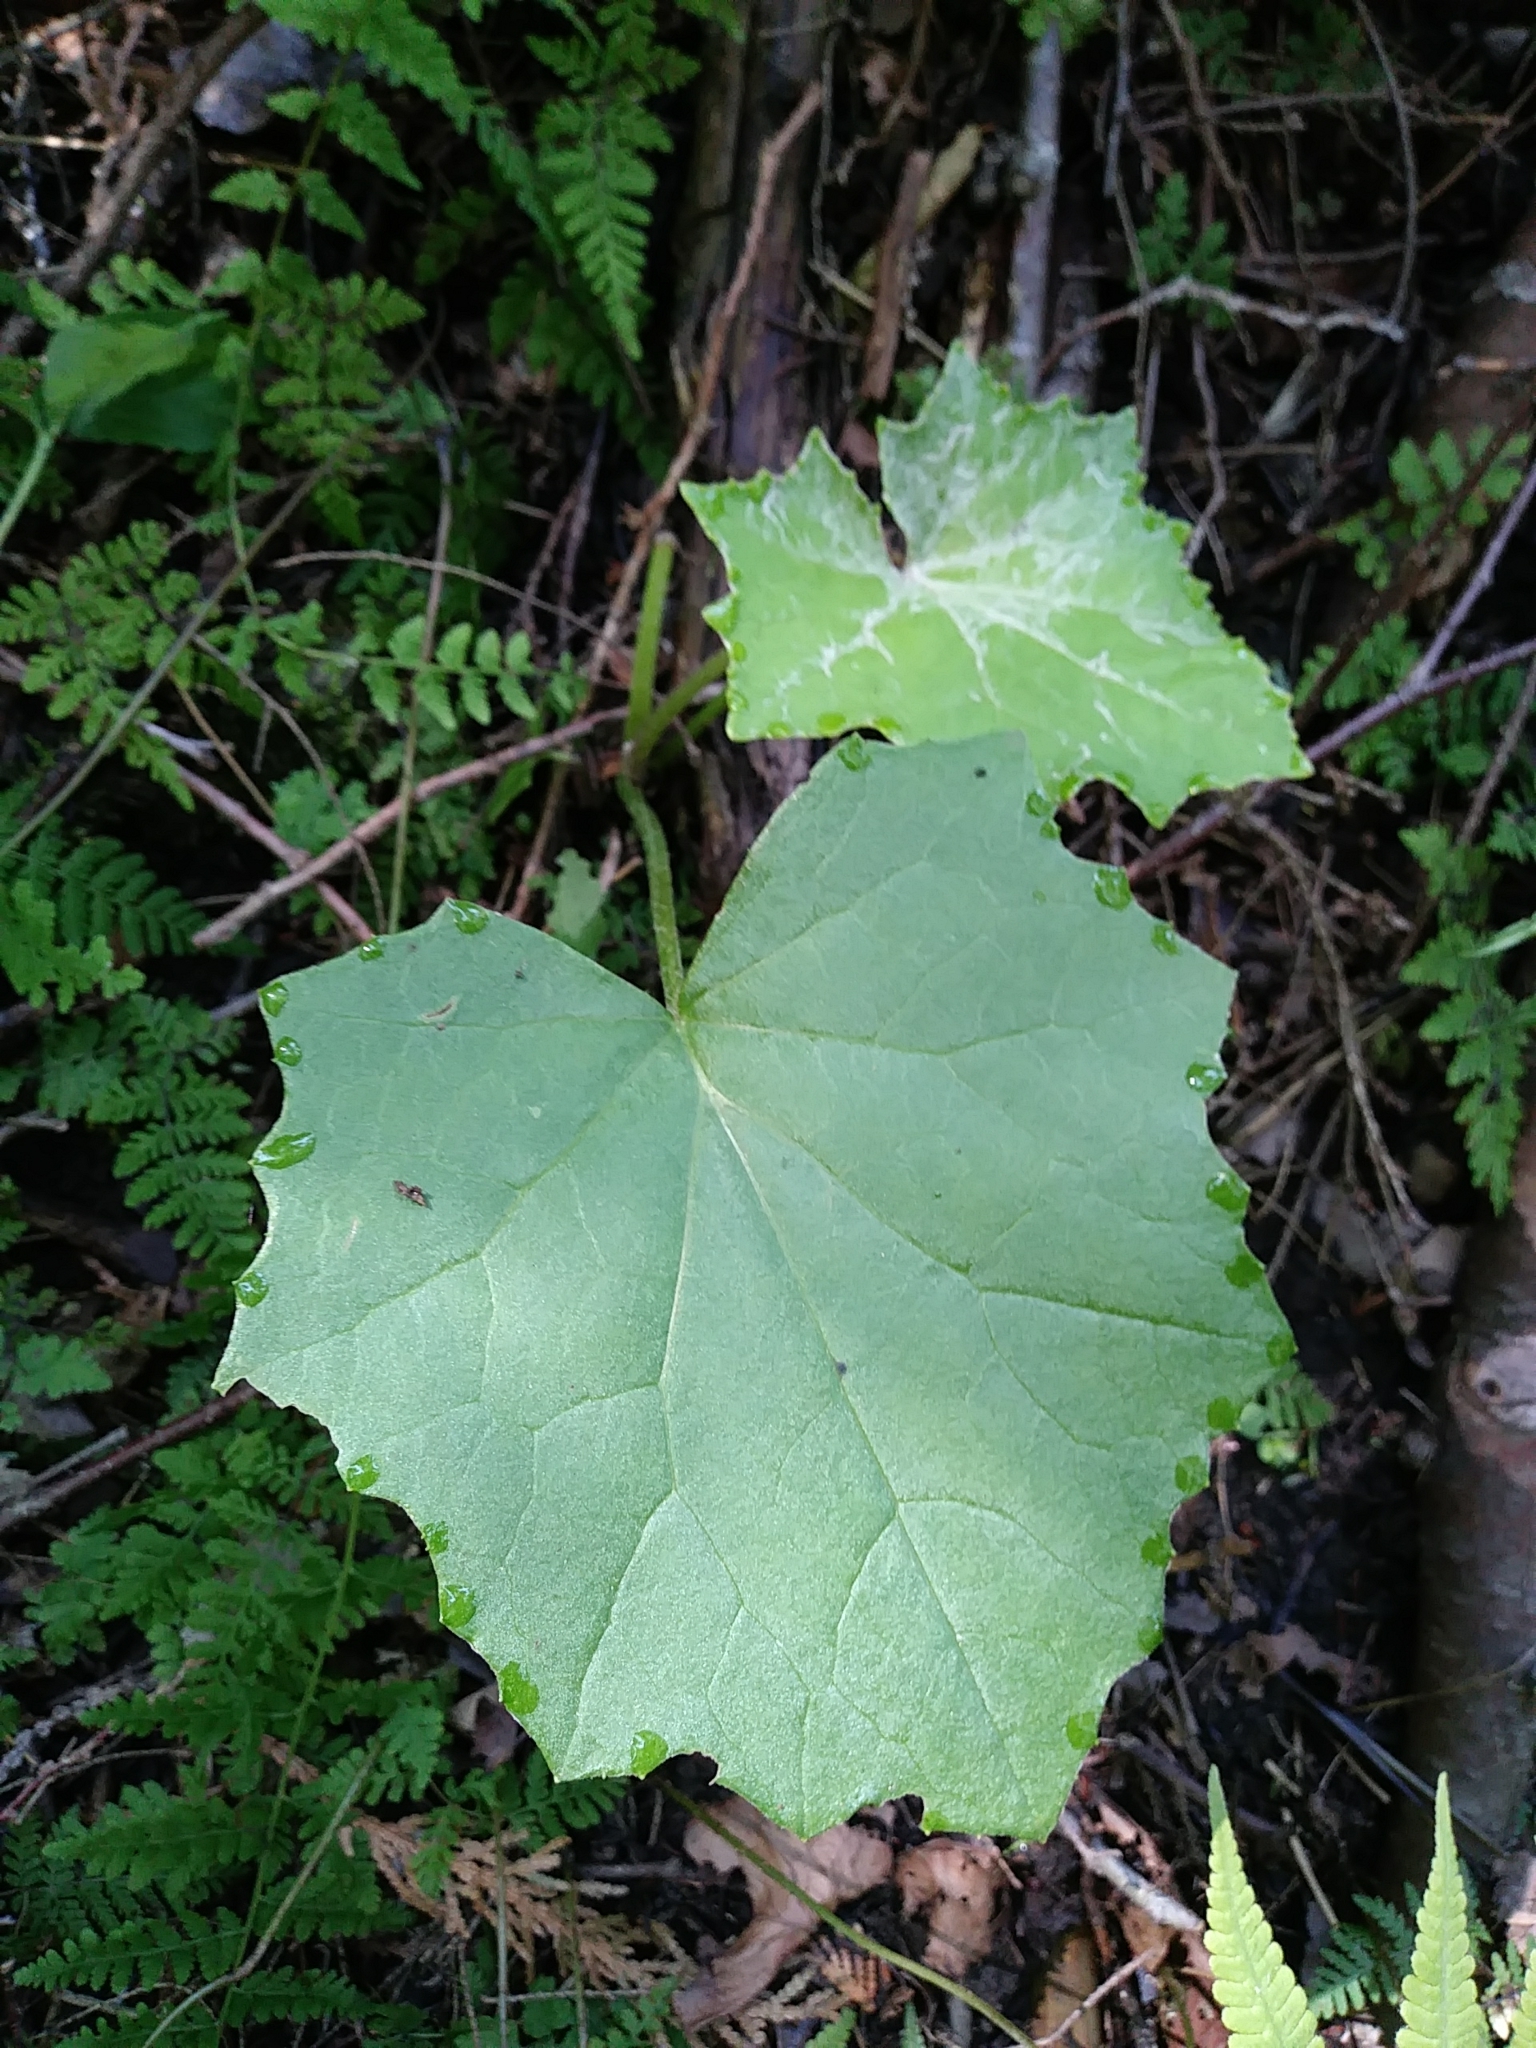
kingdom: Plantae
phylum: Tracheophyta
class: Magnoliopsida
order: Asterales
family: Asteraceae
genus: Tussilago
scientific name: Tussilago farfara
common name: Coltsfoot
